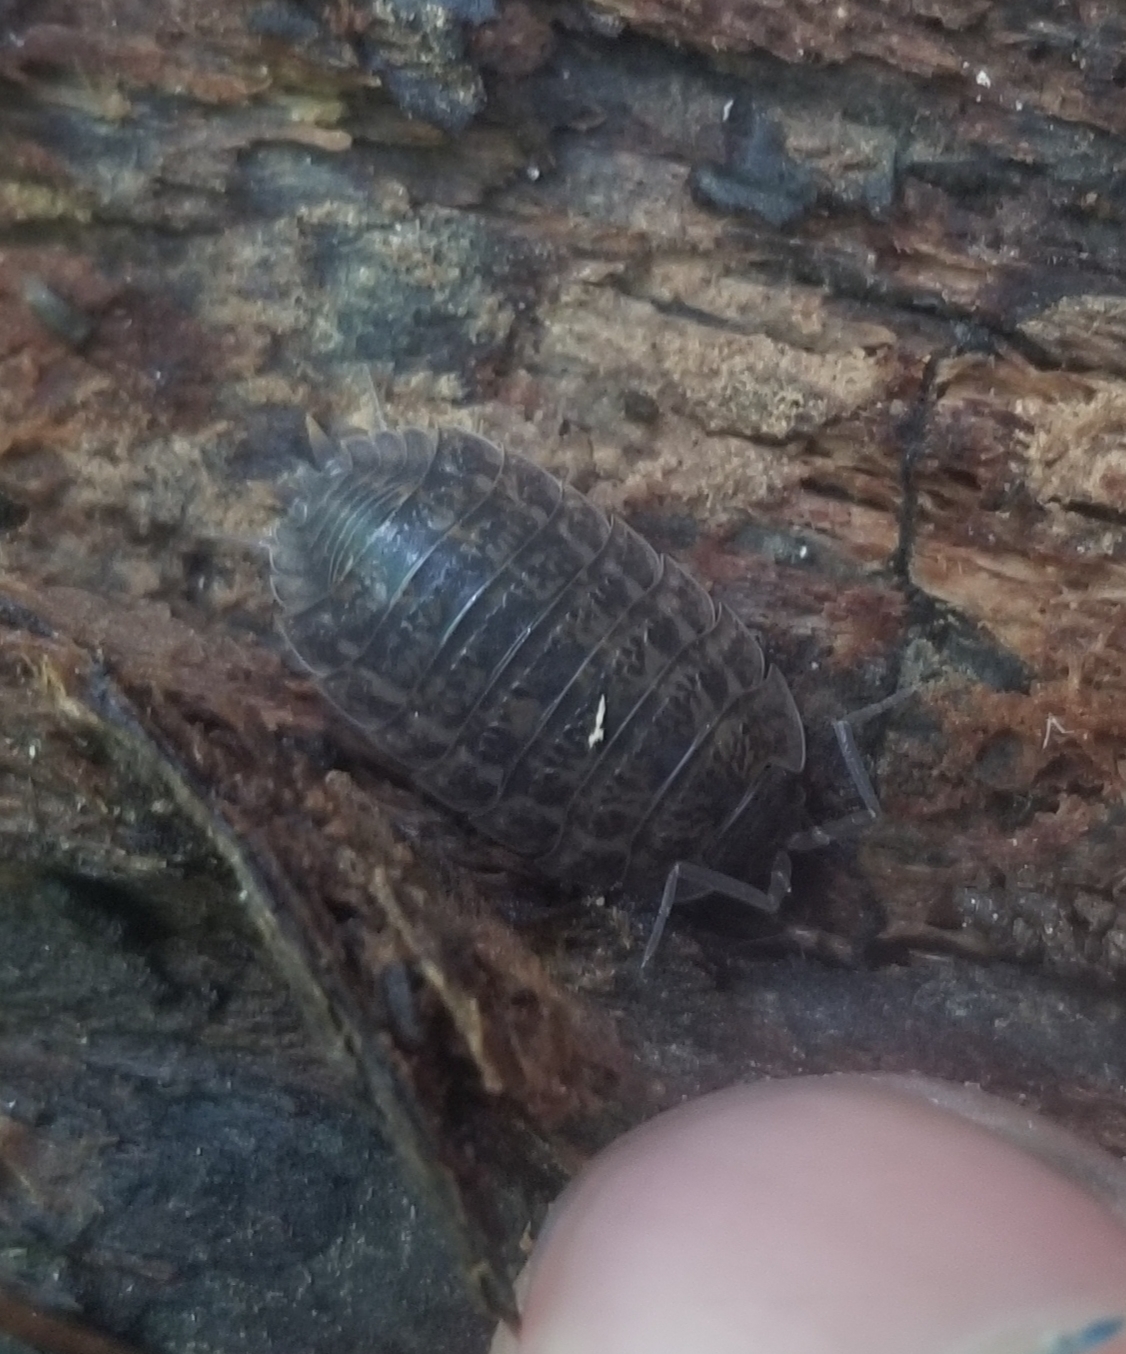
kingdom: Animalia
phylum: Arthropoda
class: Malacostraca
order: Isopoda
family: Trachelipodidae
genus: Trachelipus
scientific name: Trachelipus rathkii
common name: Isopod
